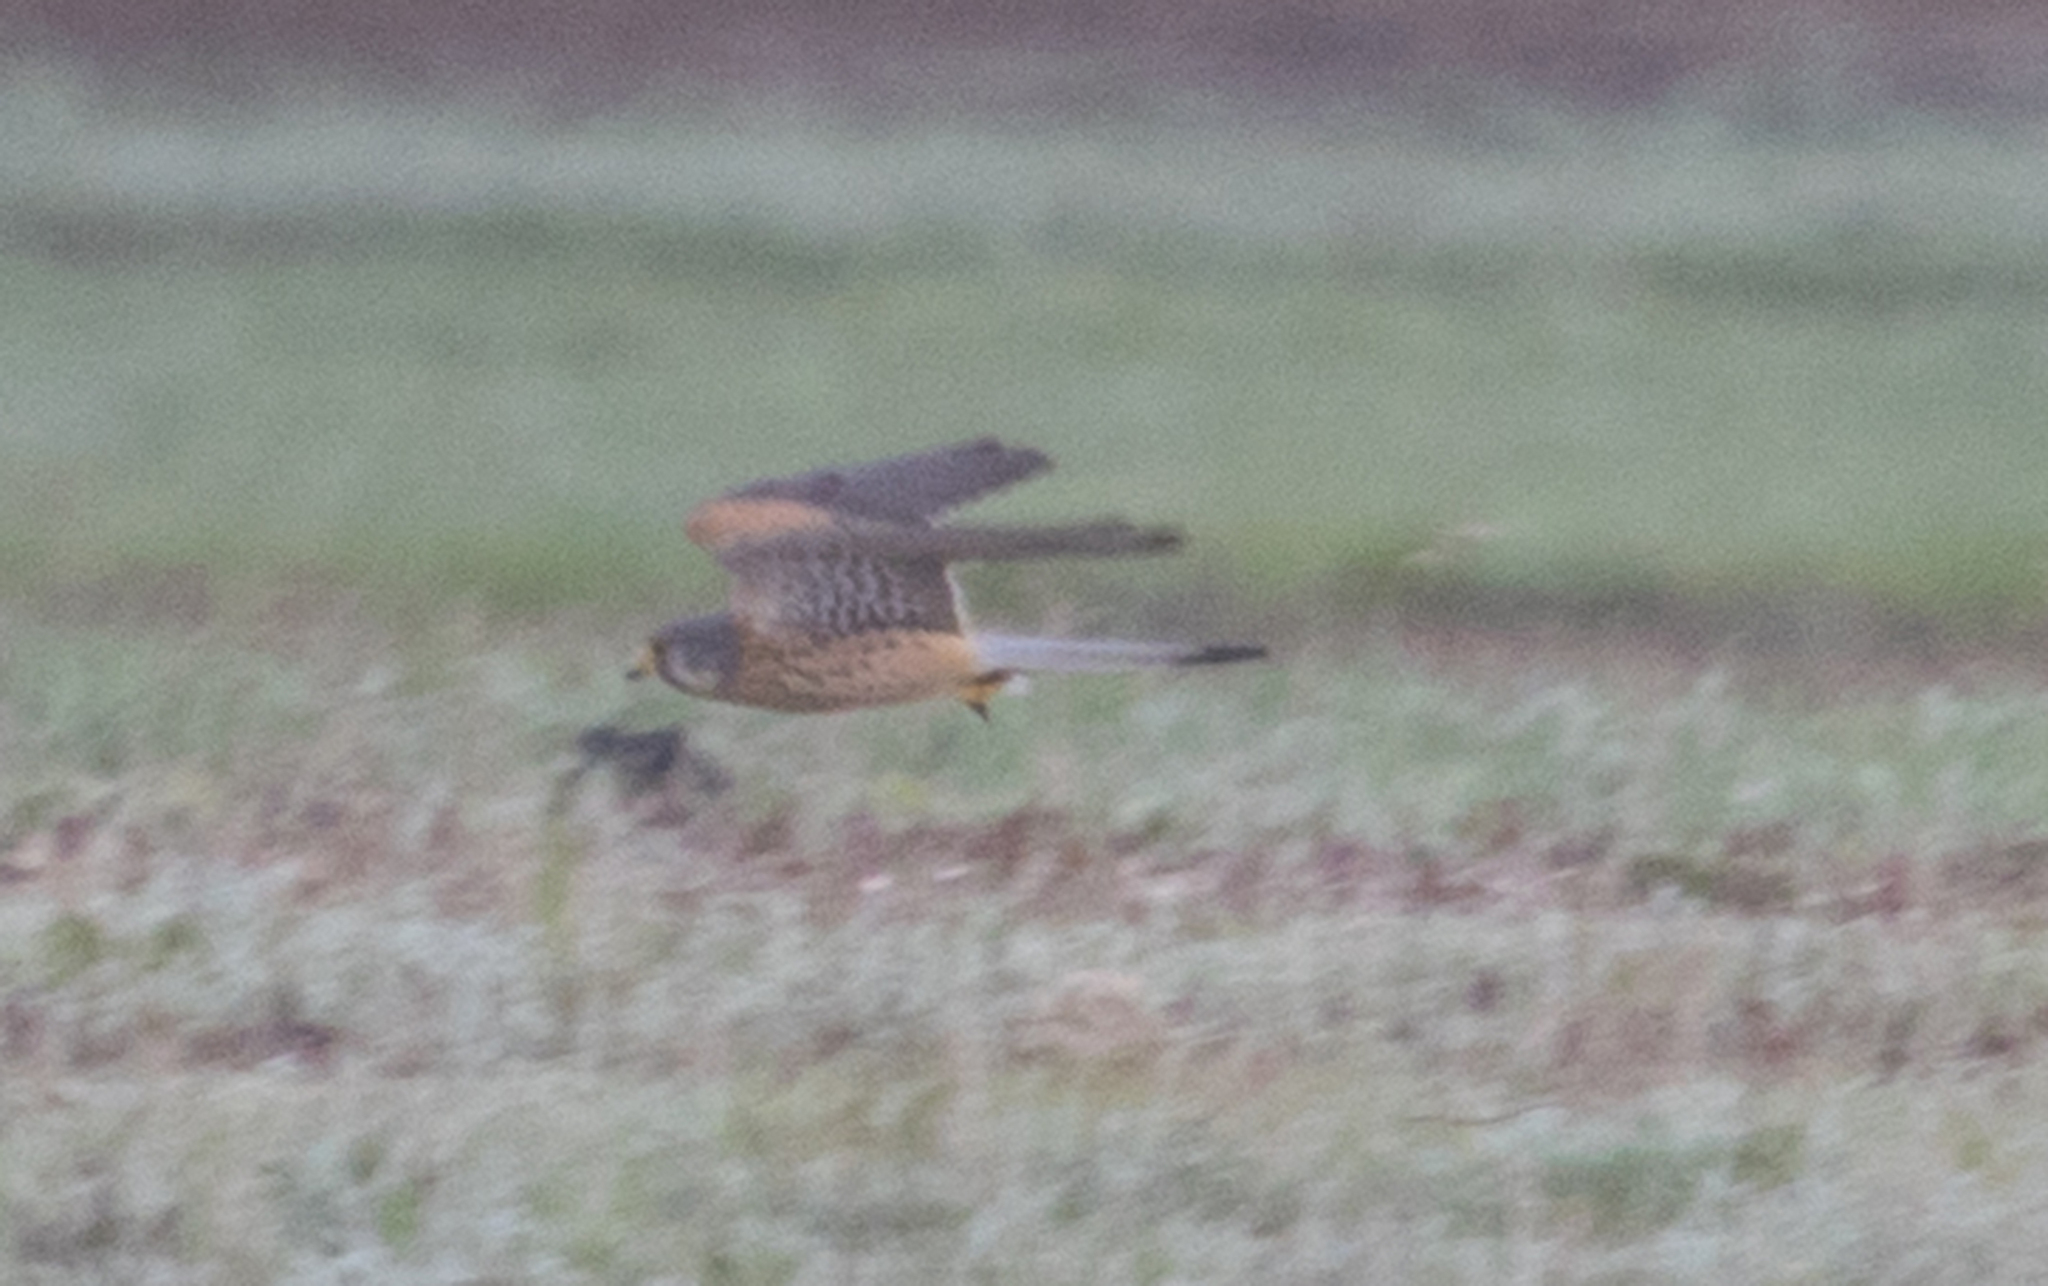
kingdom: Animalia
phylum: Chordata
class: Aves
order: Falconiformes
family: Falconidae
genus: Falco
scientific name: Falco tinnunculus
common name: Common kestrel
